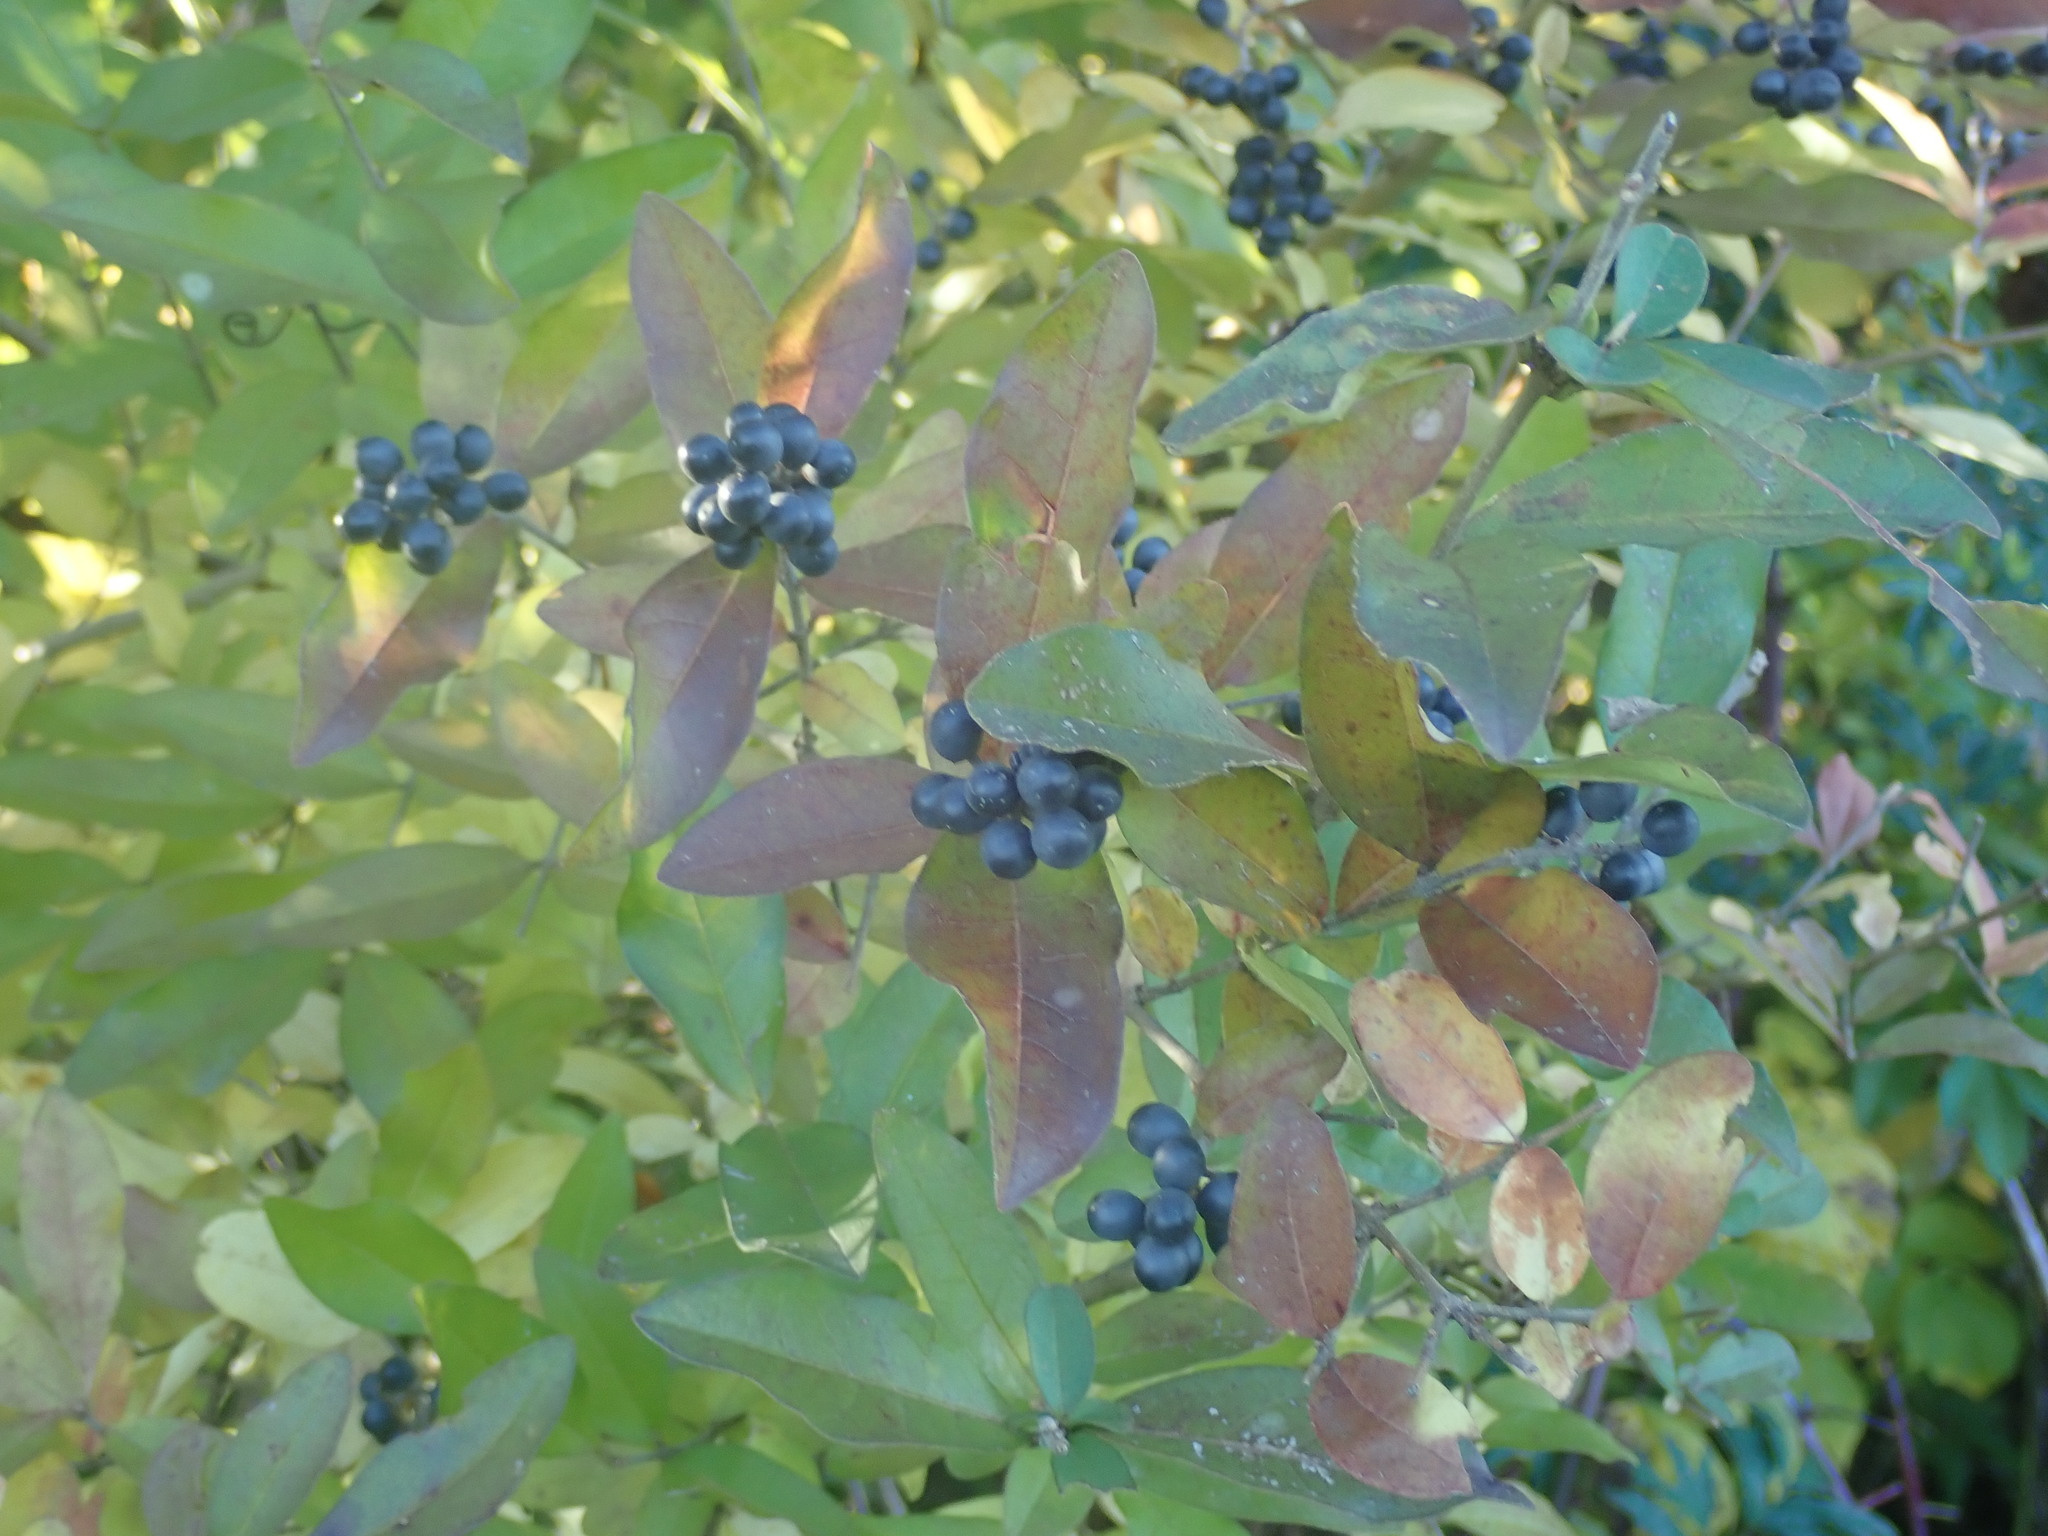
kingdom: Plantae
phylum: Tracheophyta
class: Magnoliopsida
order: Lamiales
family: Oleaceae
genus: Ligustrum
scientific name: Ligustrum obtusifolium
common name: Border privet
